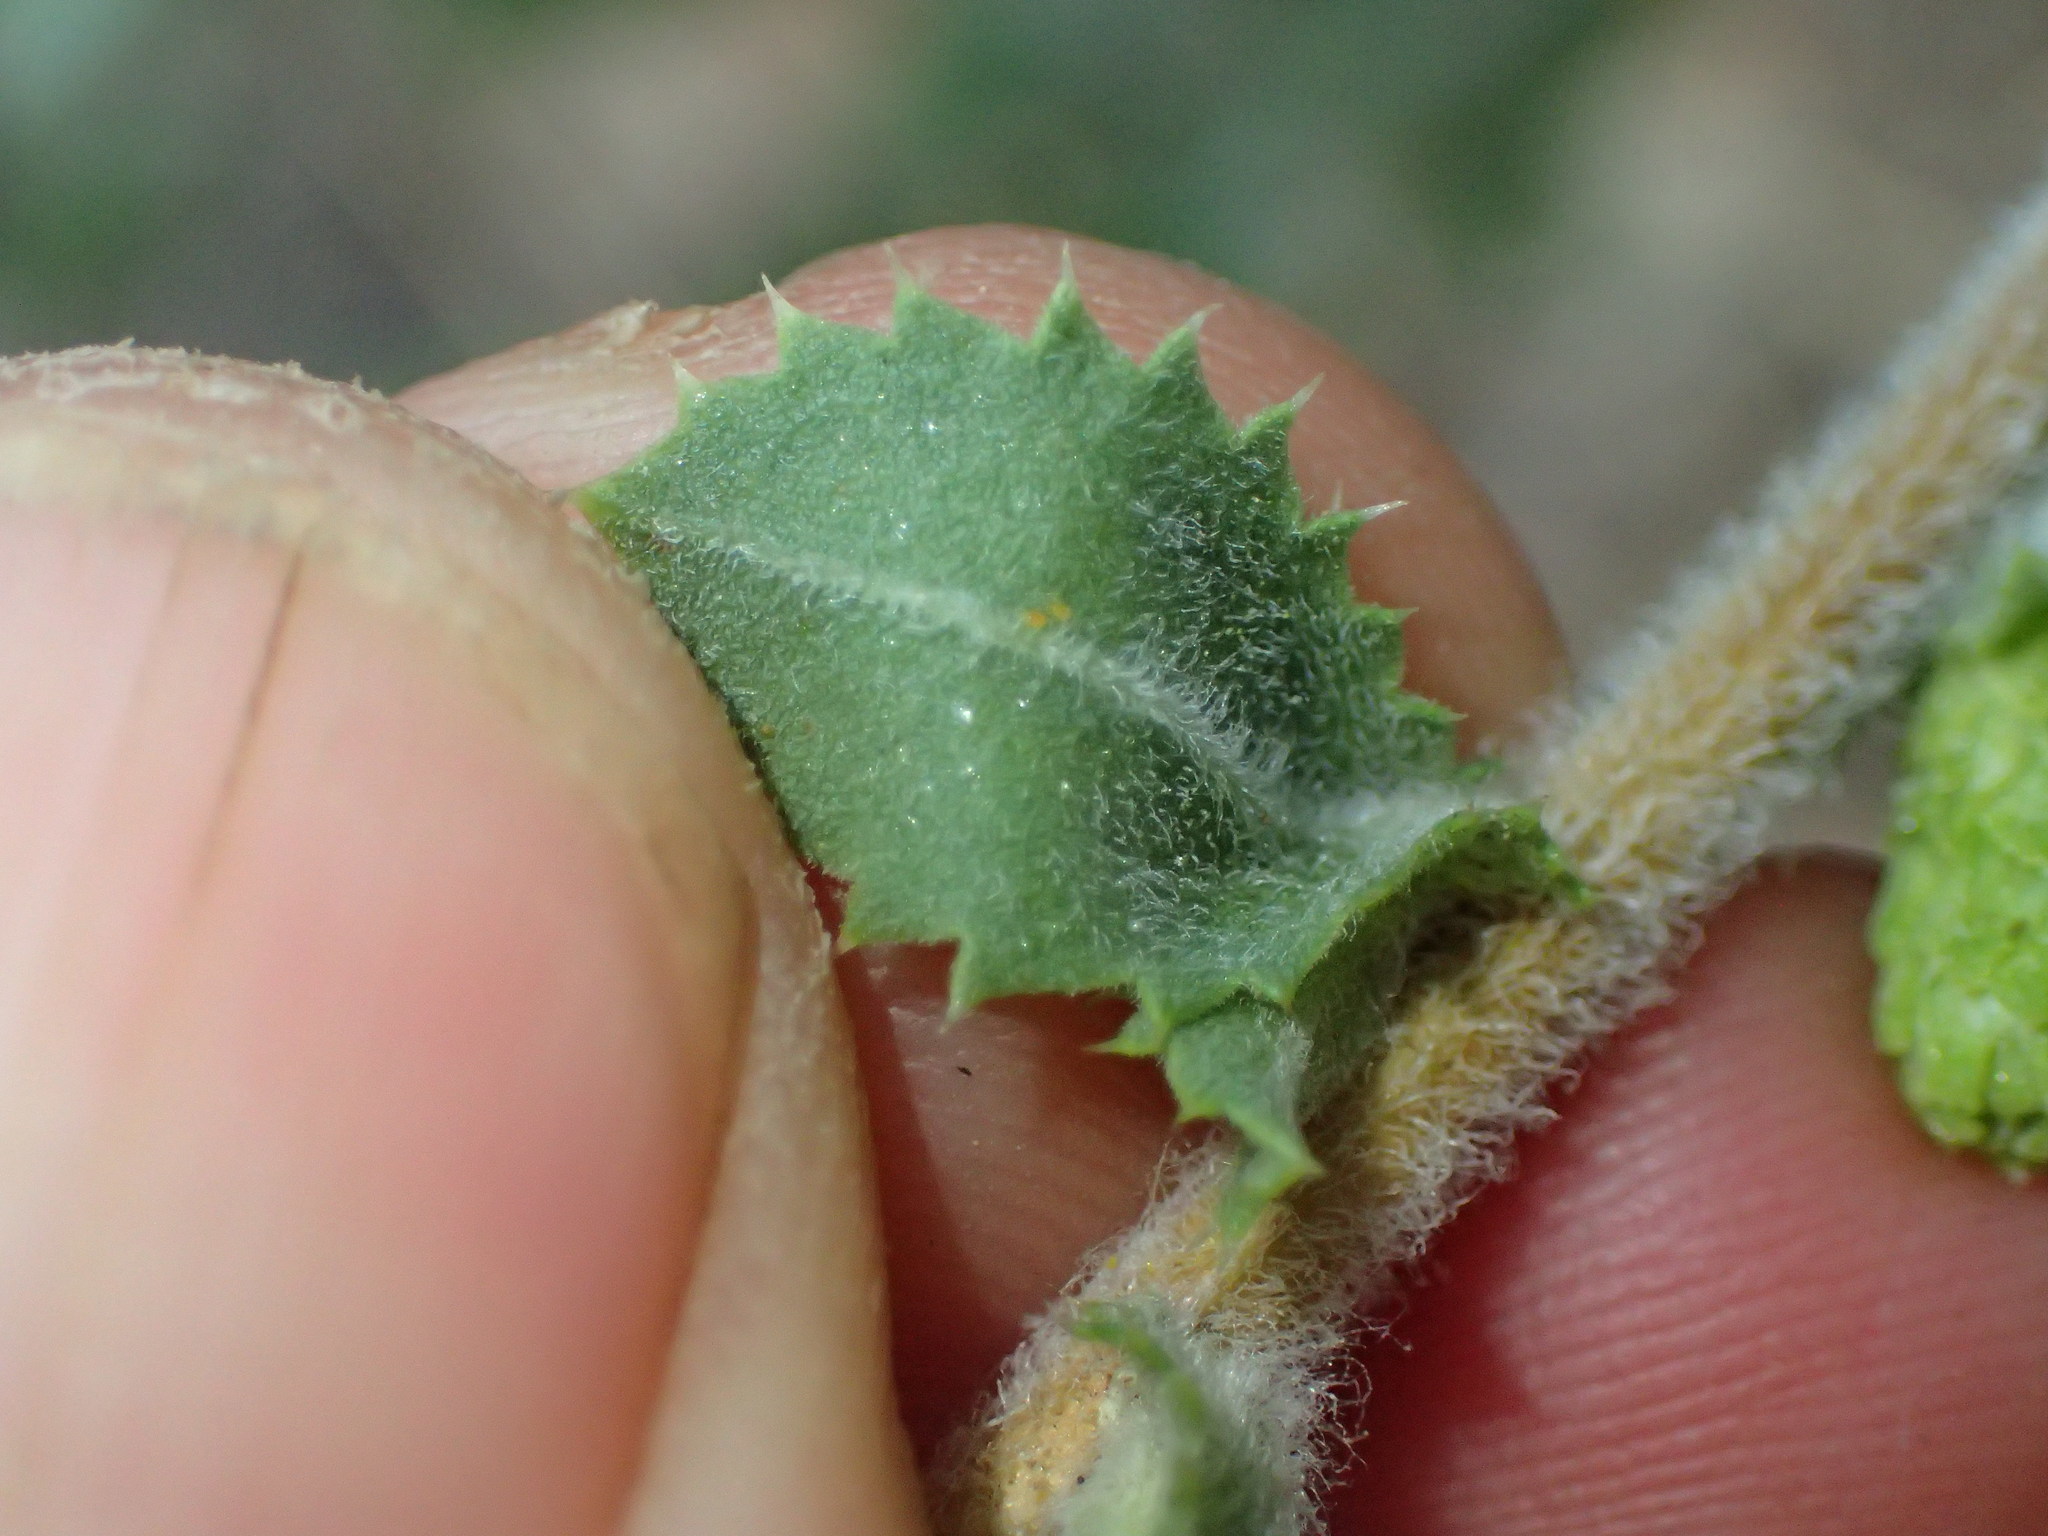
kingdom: Plantae
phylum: Tracheophyta
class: Magnoliopsida
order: Asterales
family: Asteraceae
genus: Hazardia
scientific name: Hazardia squarrosa
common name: Saw-tooth goldenbush
